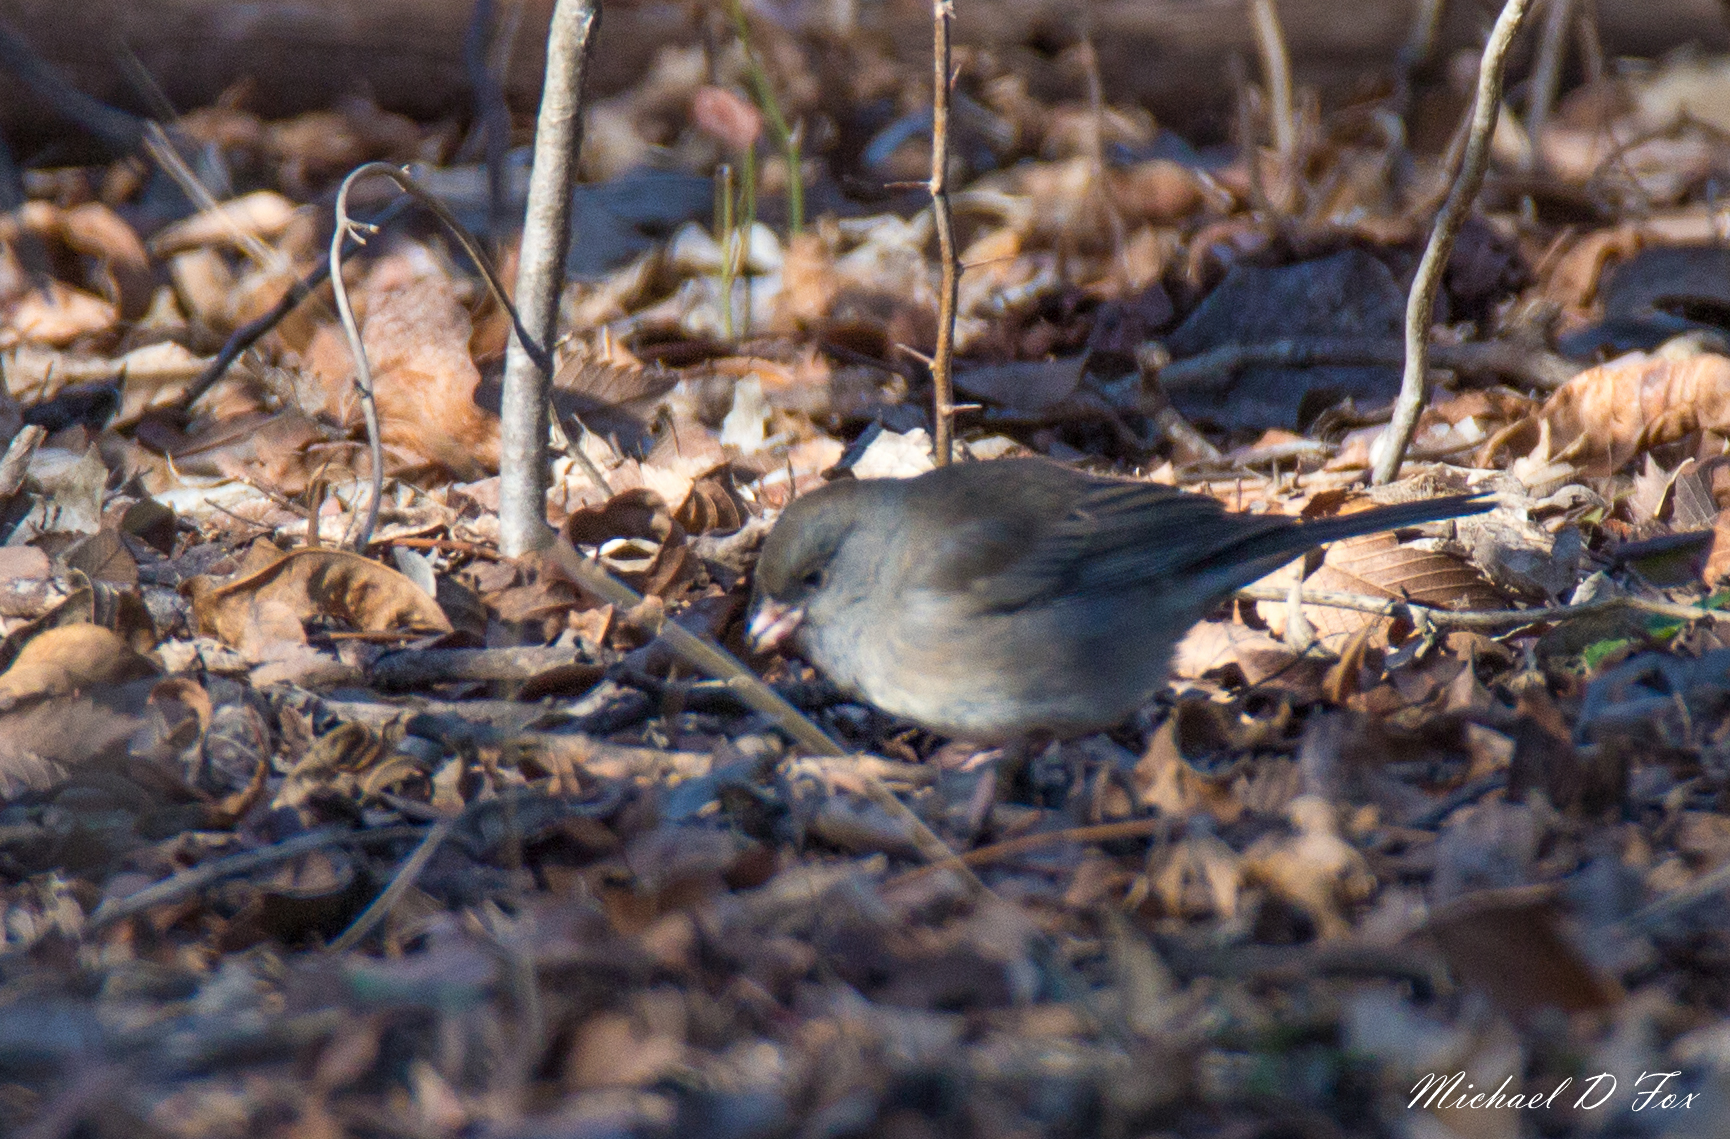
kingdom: Animalia
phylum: Chordata
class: Aves
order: Passeriformes
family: Passerellidae
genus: Junco
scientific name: Junco hyemalis
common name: Dark-eyed junco
